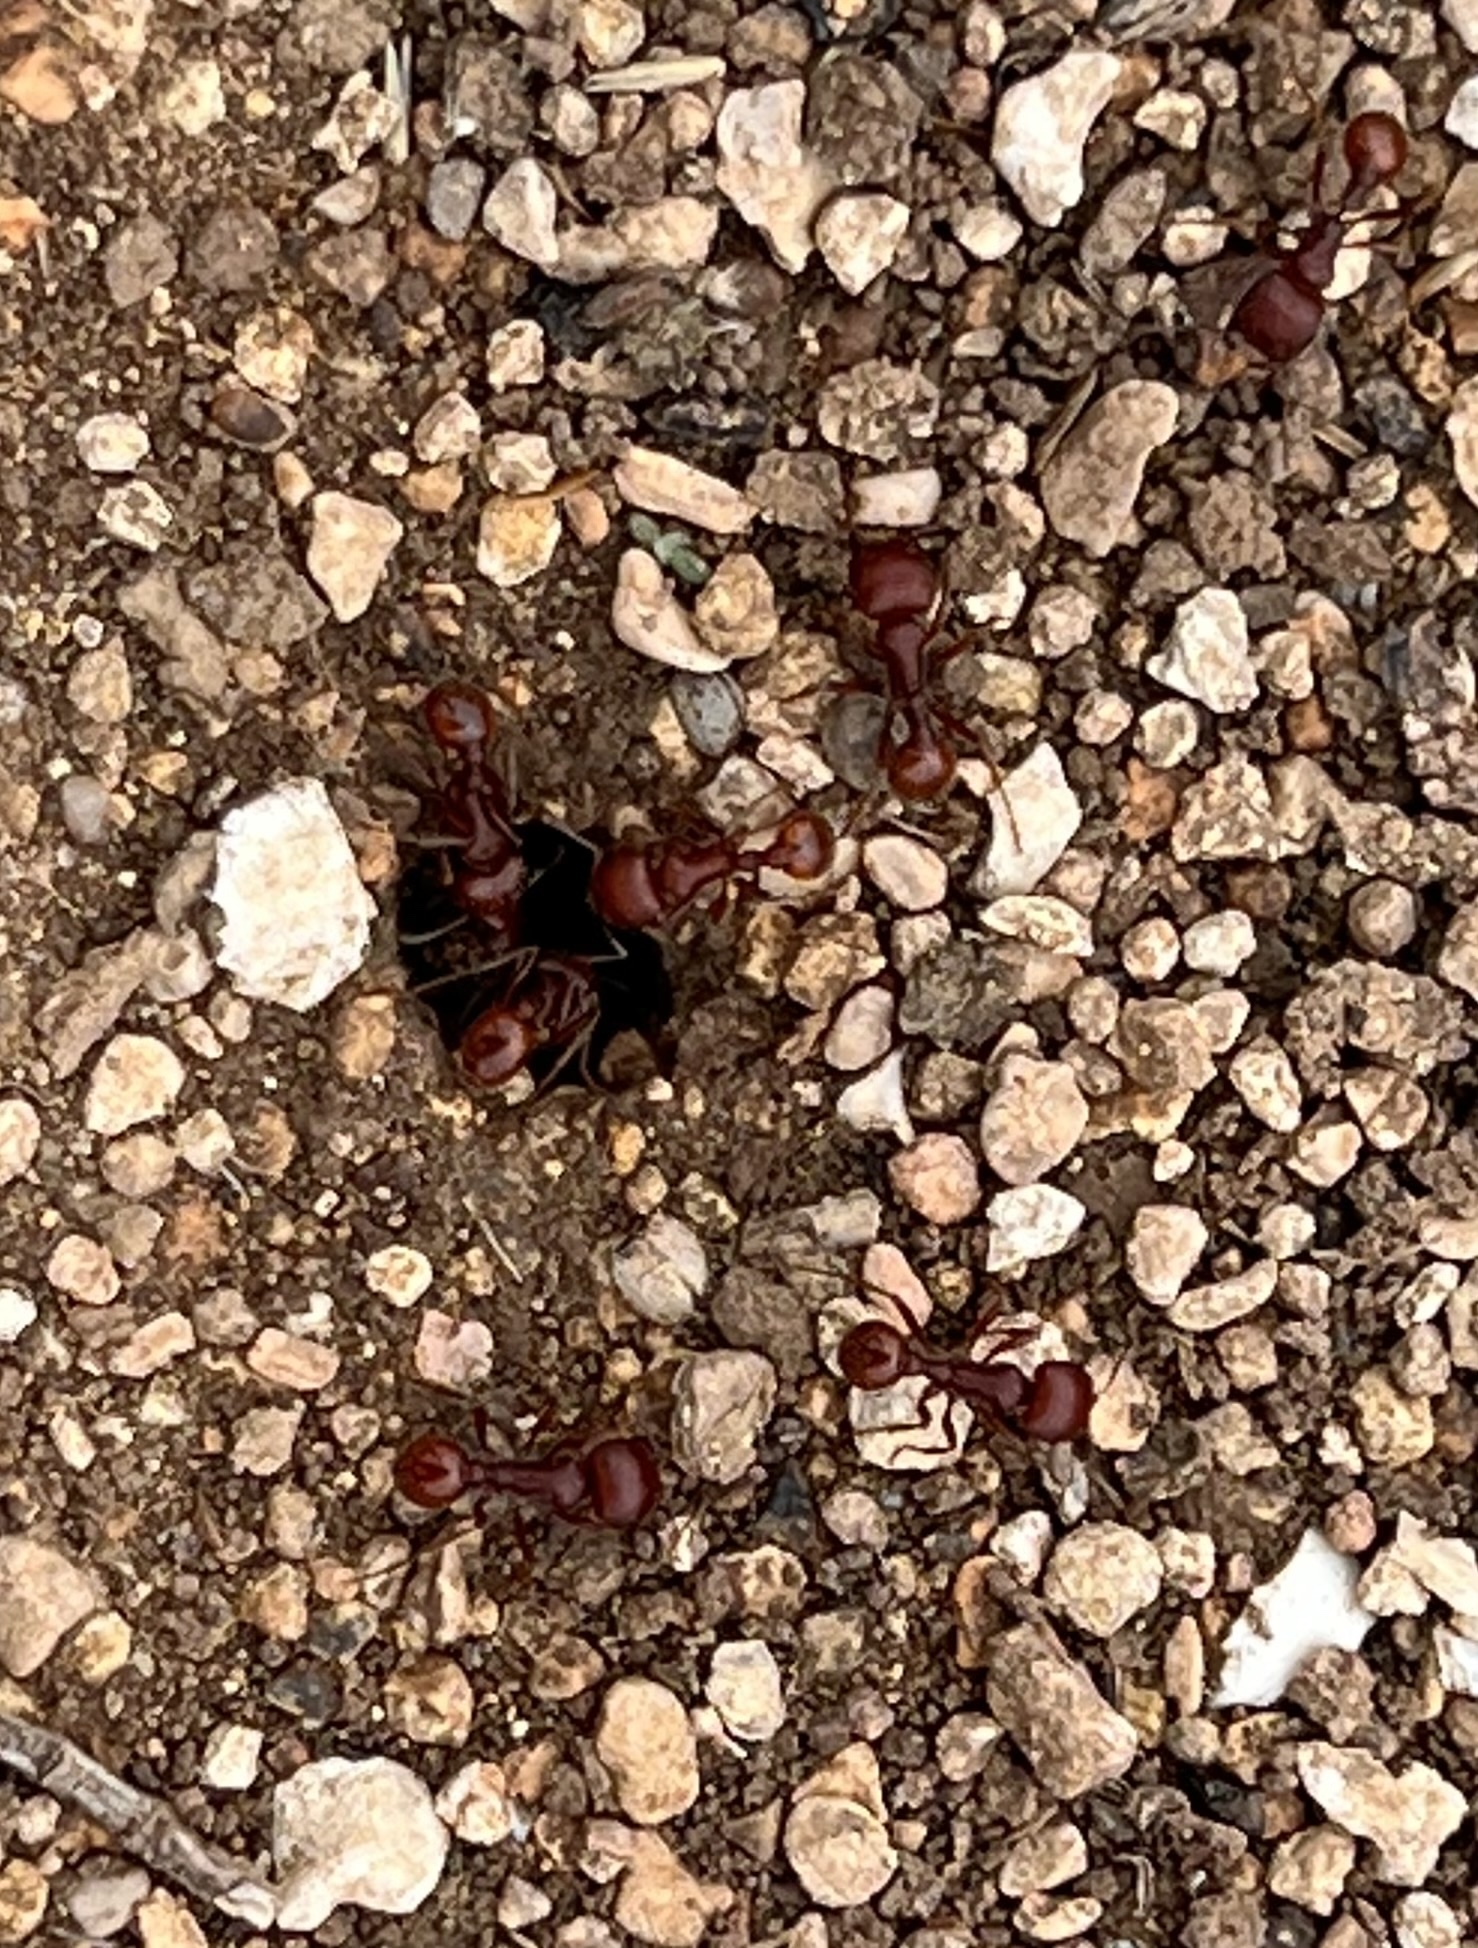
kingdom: Animalia
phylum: Arthropoda
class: Insecta
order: Hymenoptera
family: Formicidae
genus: Pogonomyrmex
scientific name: Pogonomyrmex barbatus
